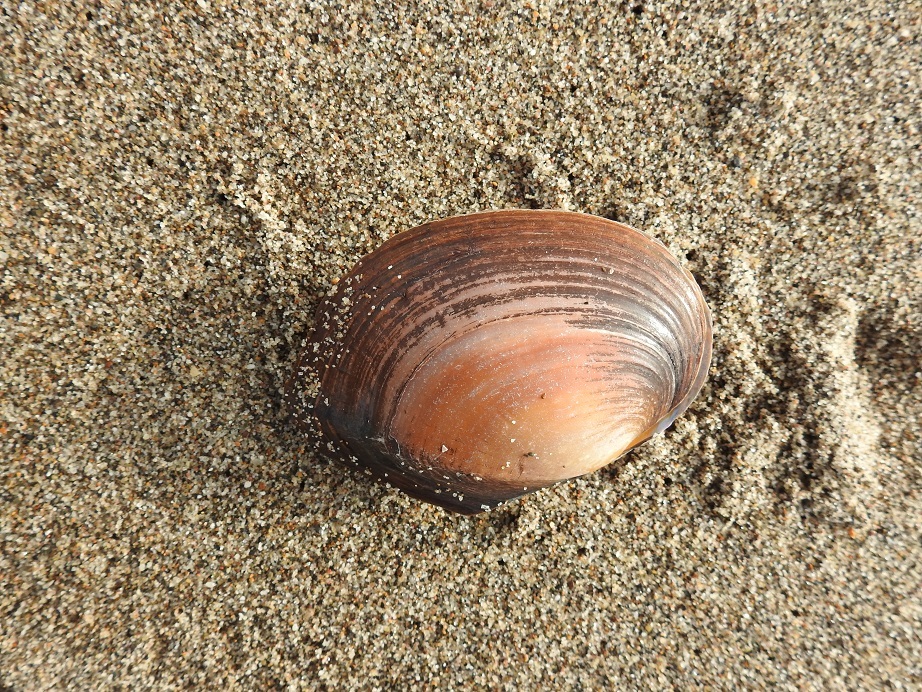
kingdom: Animalia
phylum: Mollusca
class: Bivalvia
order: Unionida
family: Unionidae
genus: Sinanodonta
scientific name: Sinanodonta woodiana
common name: Chinese pond mussel
